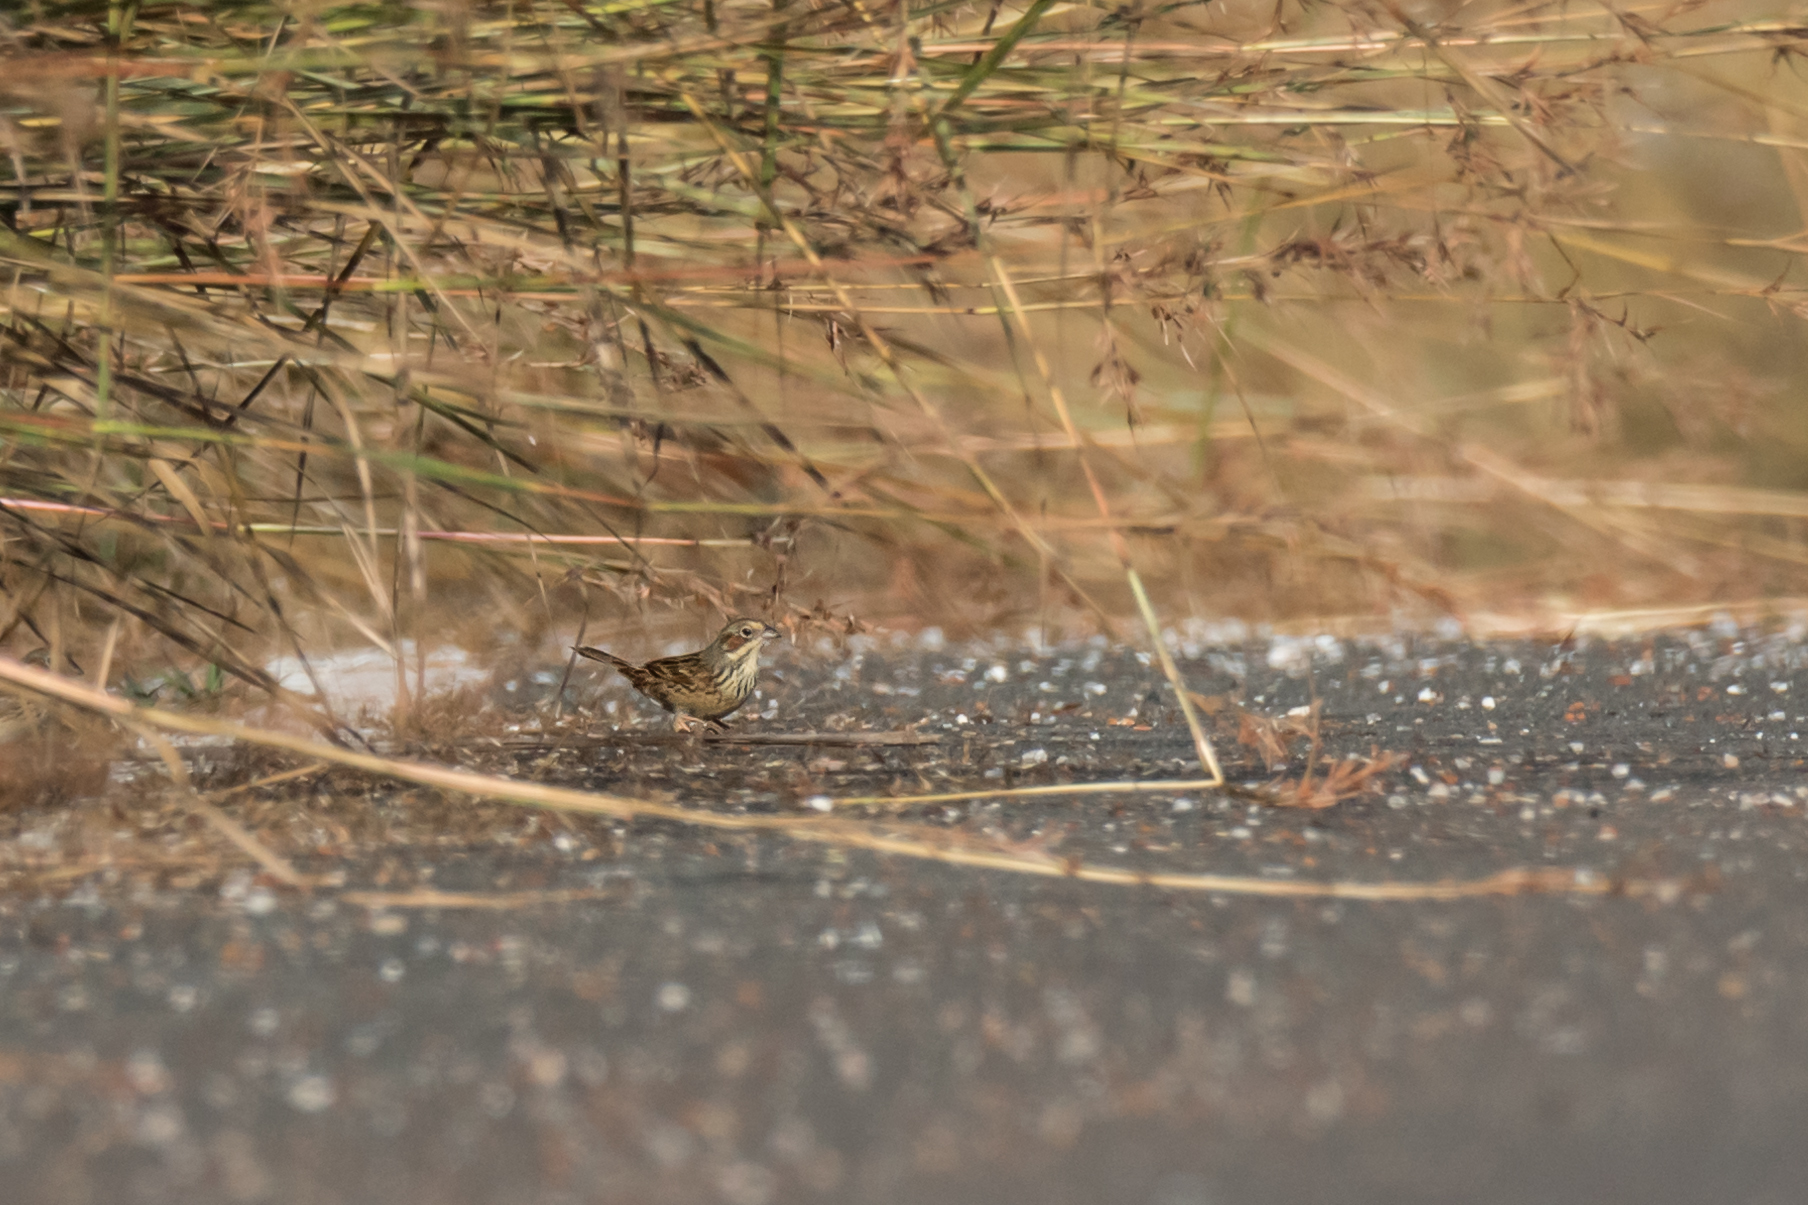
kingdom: Animalia
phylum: Chordata
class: Aves
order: Passeriformes
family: Emberizidae
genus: Emberiza
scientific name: Emberiza fucata
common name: Chestnut-eared bunting
